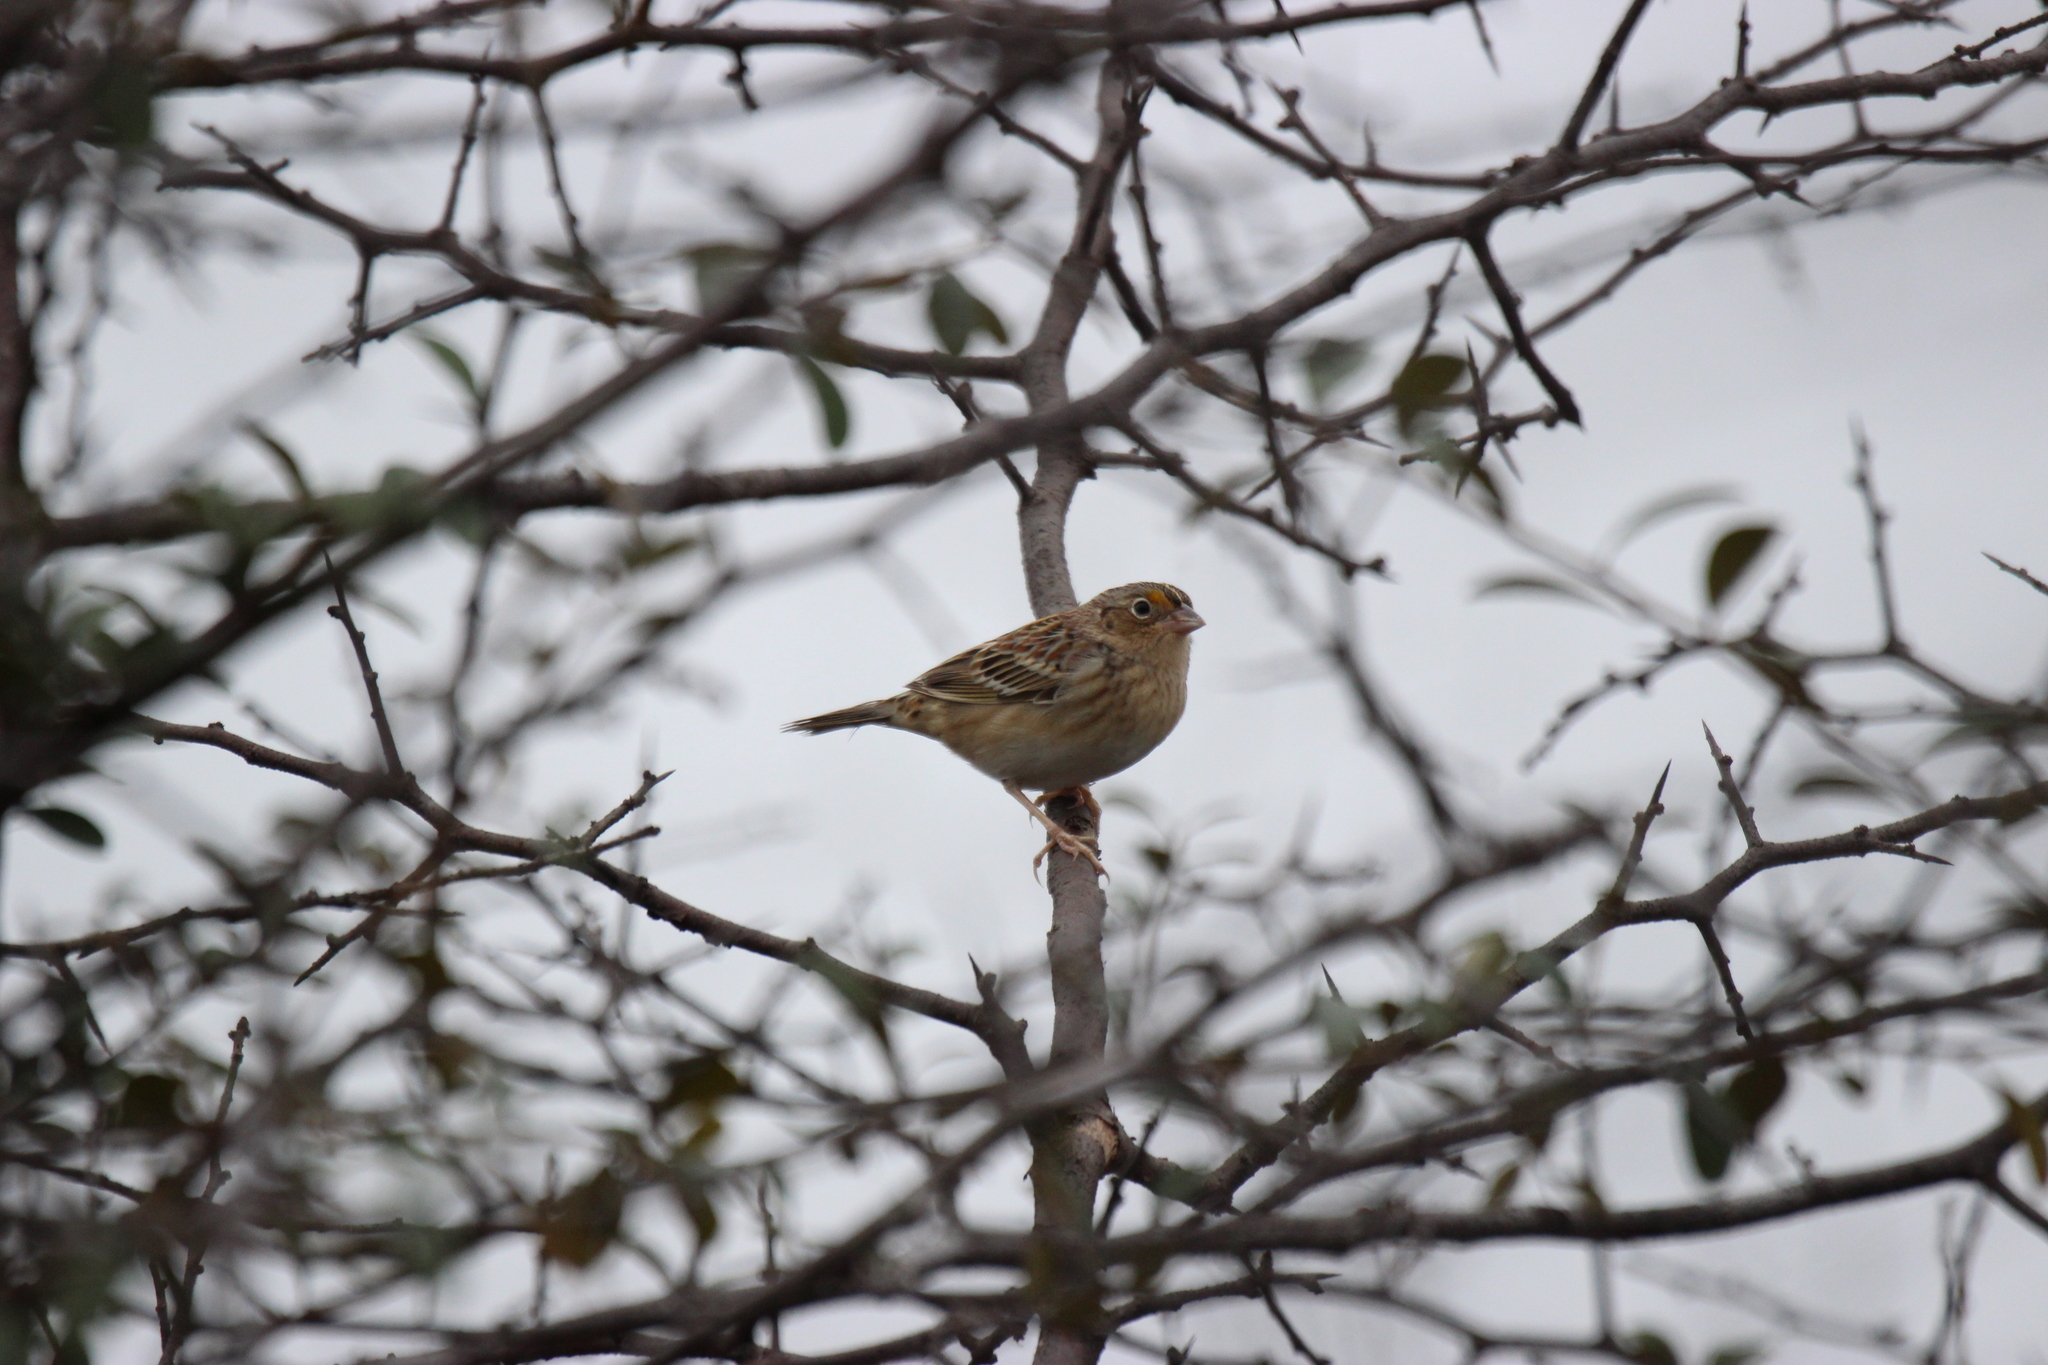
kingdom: Animalia
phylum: Chordata
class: Aves
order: Passeriformes
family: Passerellidae
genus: Ammodramus
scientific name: Ammodramus savannarum
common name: Grasshopper sparrow
